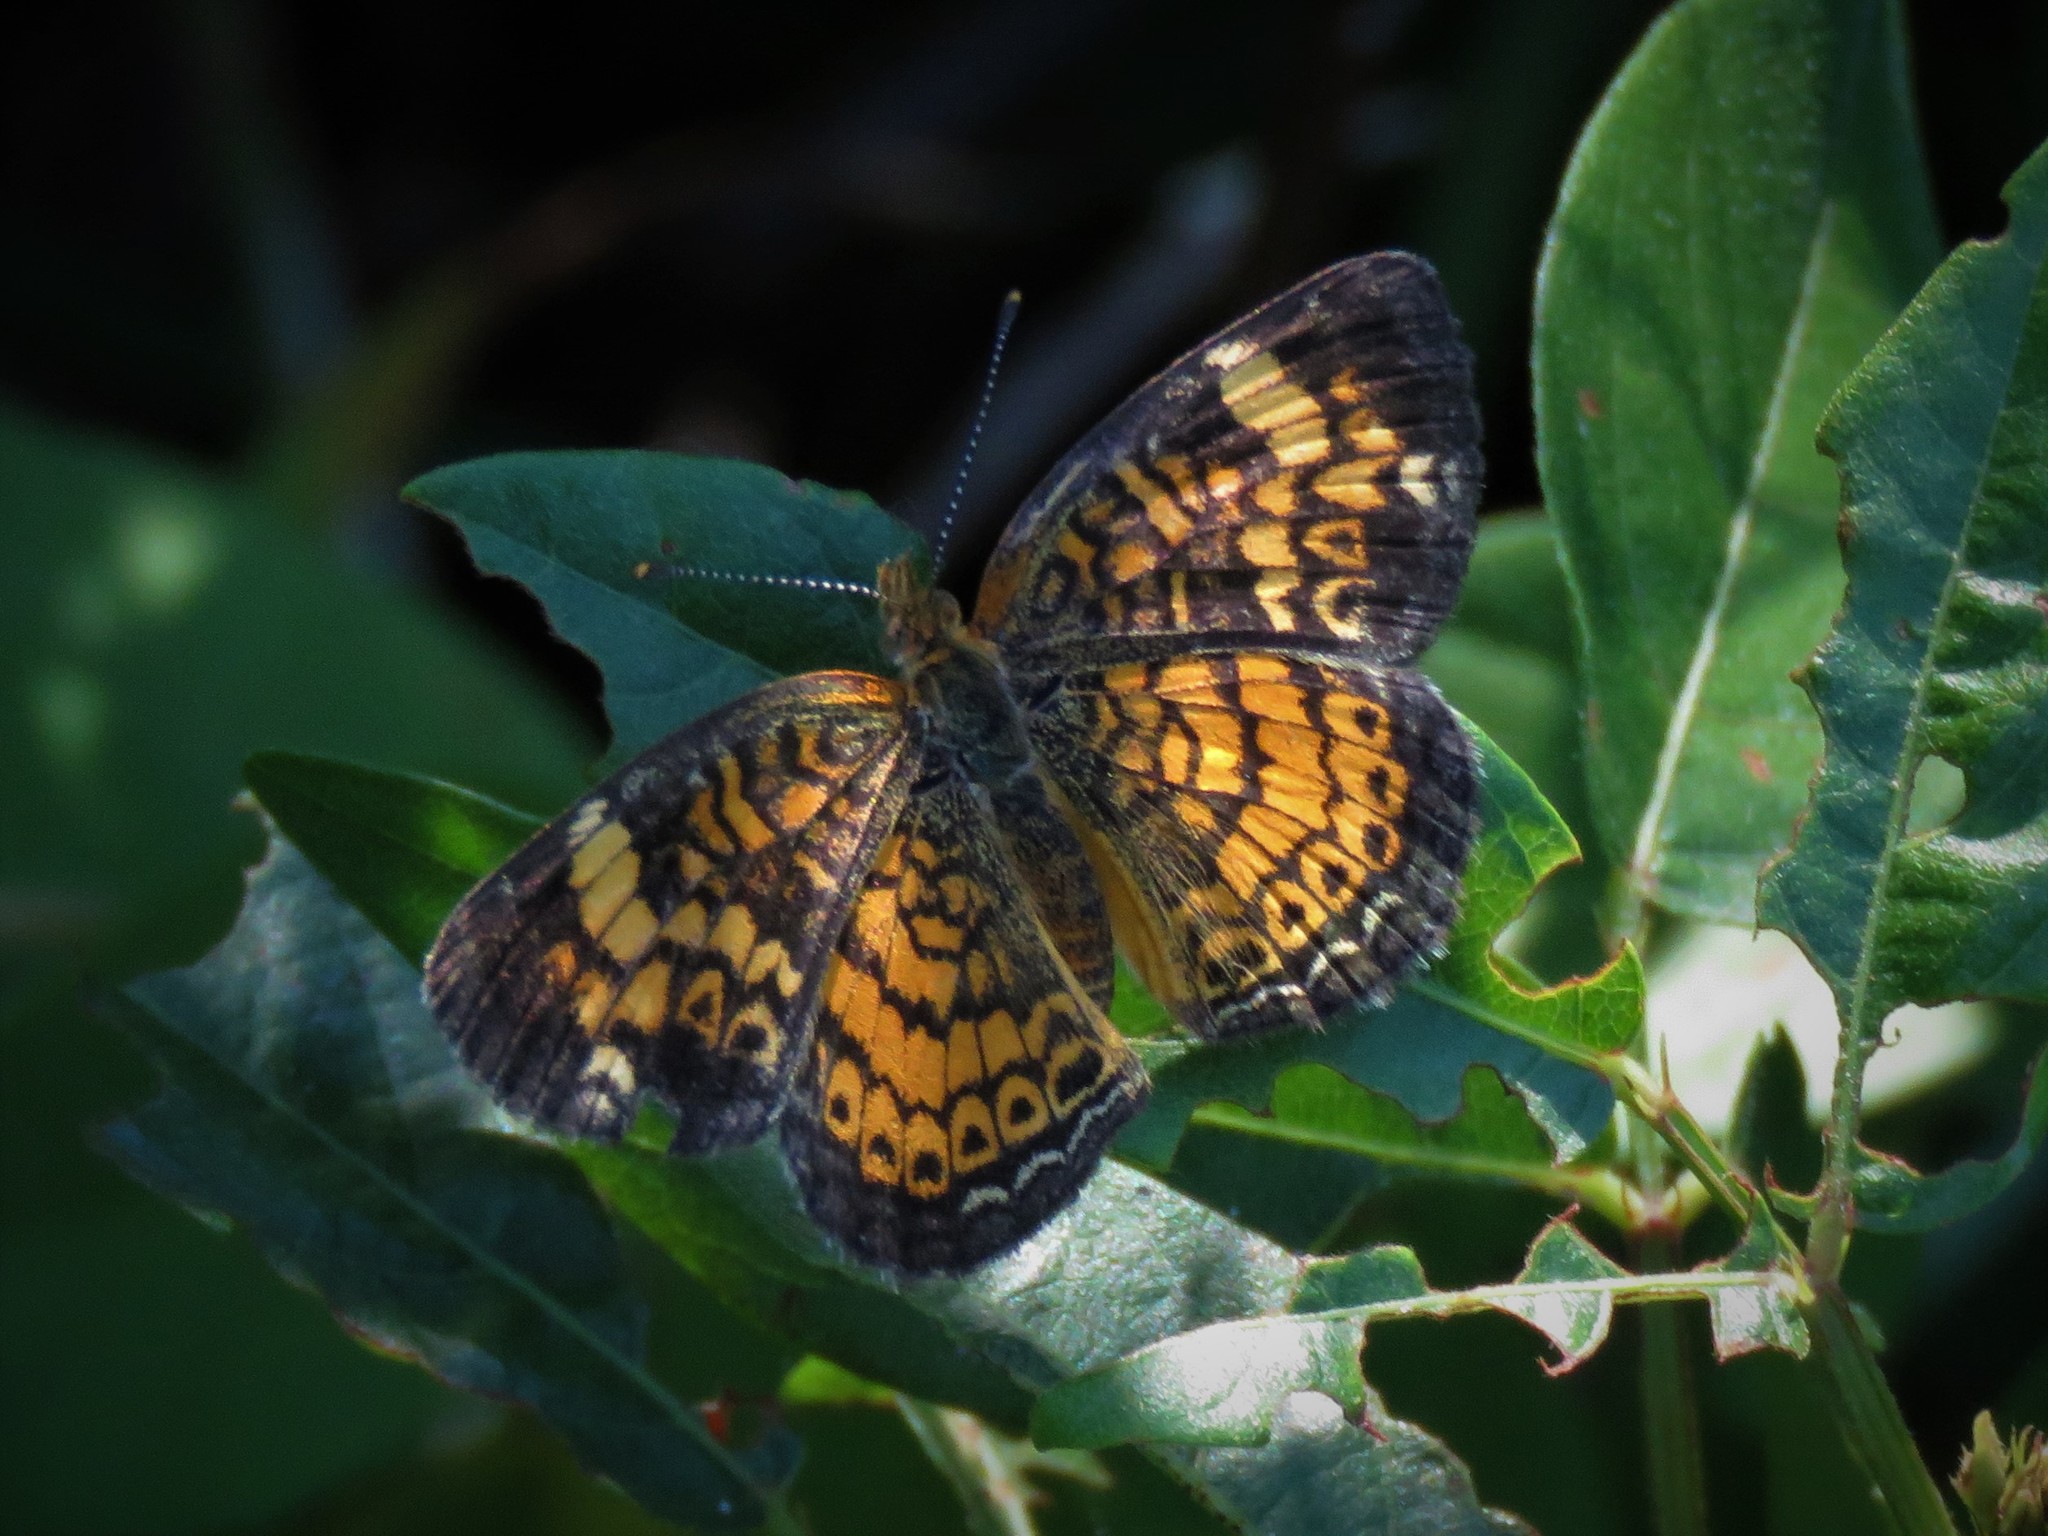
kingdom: Animalia
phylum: Arthropoda
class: Insecta
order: Lepidoptera
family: Nymphalidae
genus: Phyciodes
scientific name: Phyciodes tharos
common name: Pearl crescent
